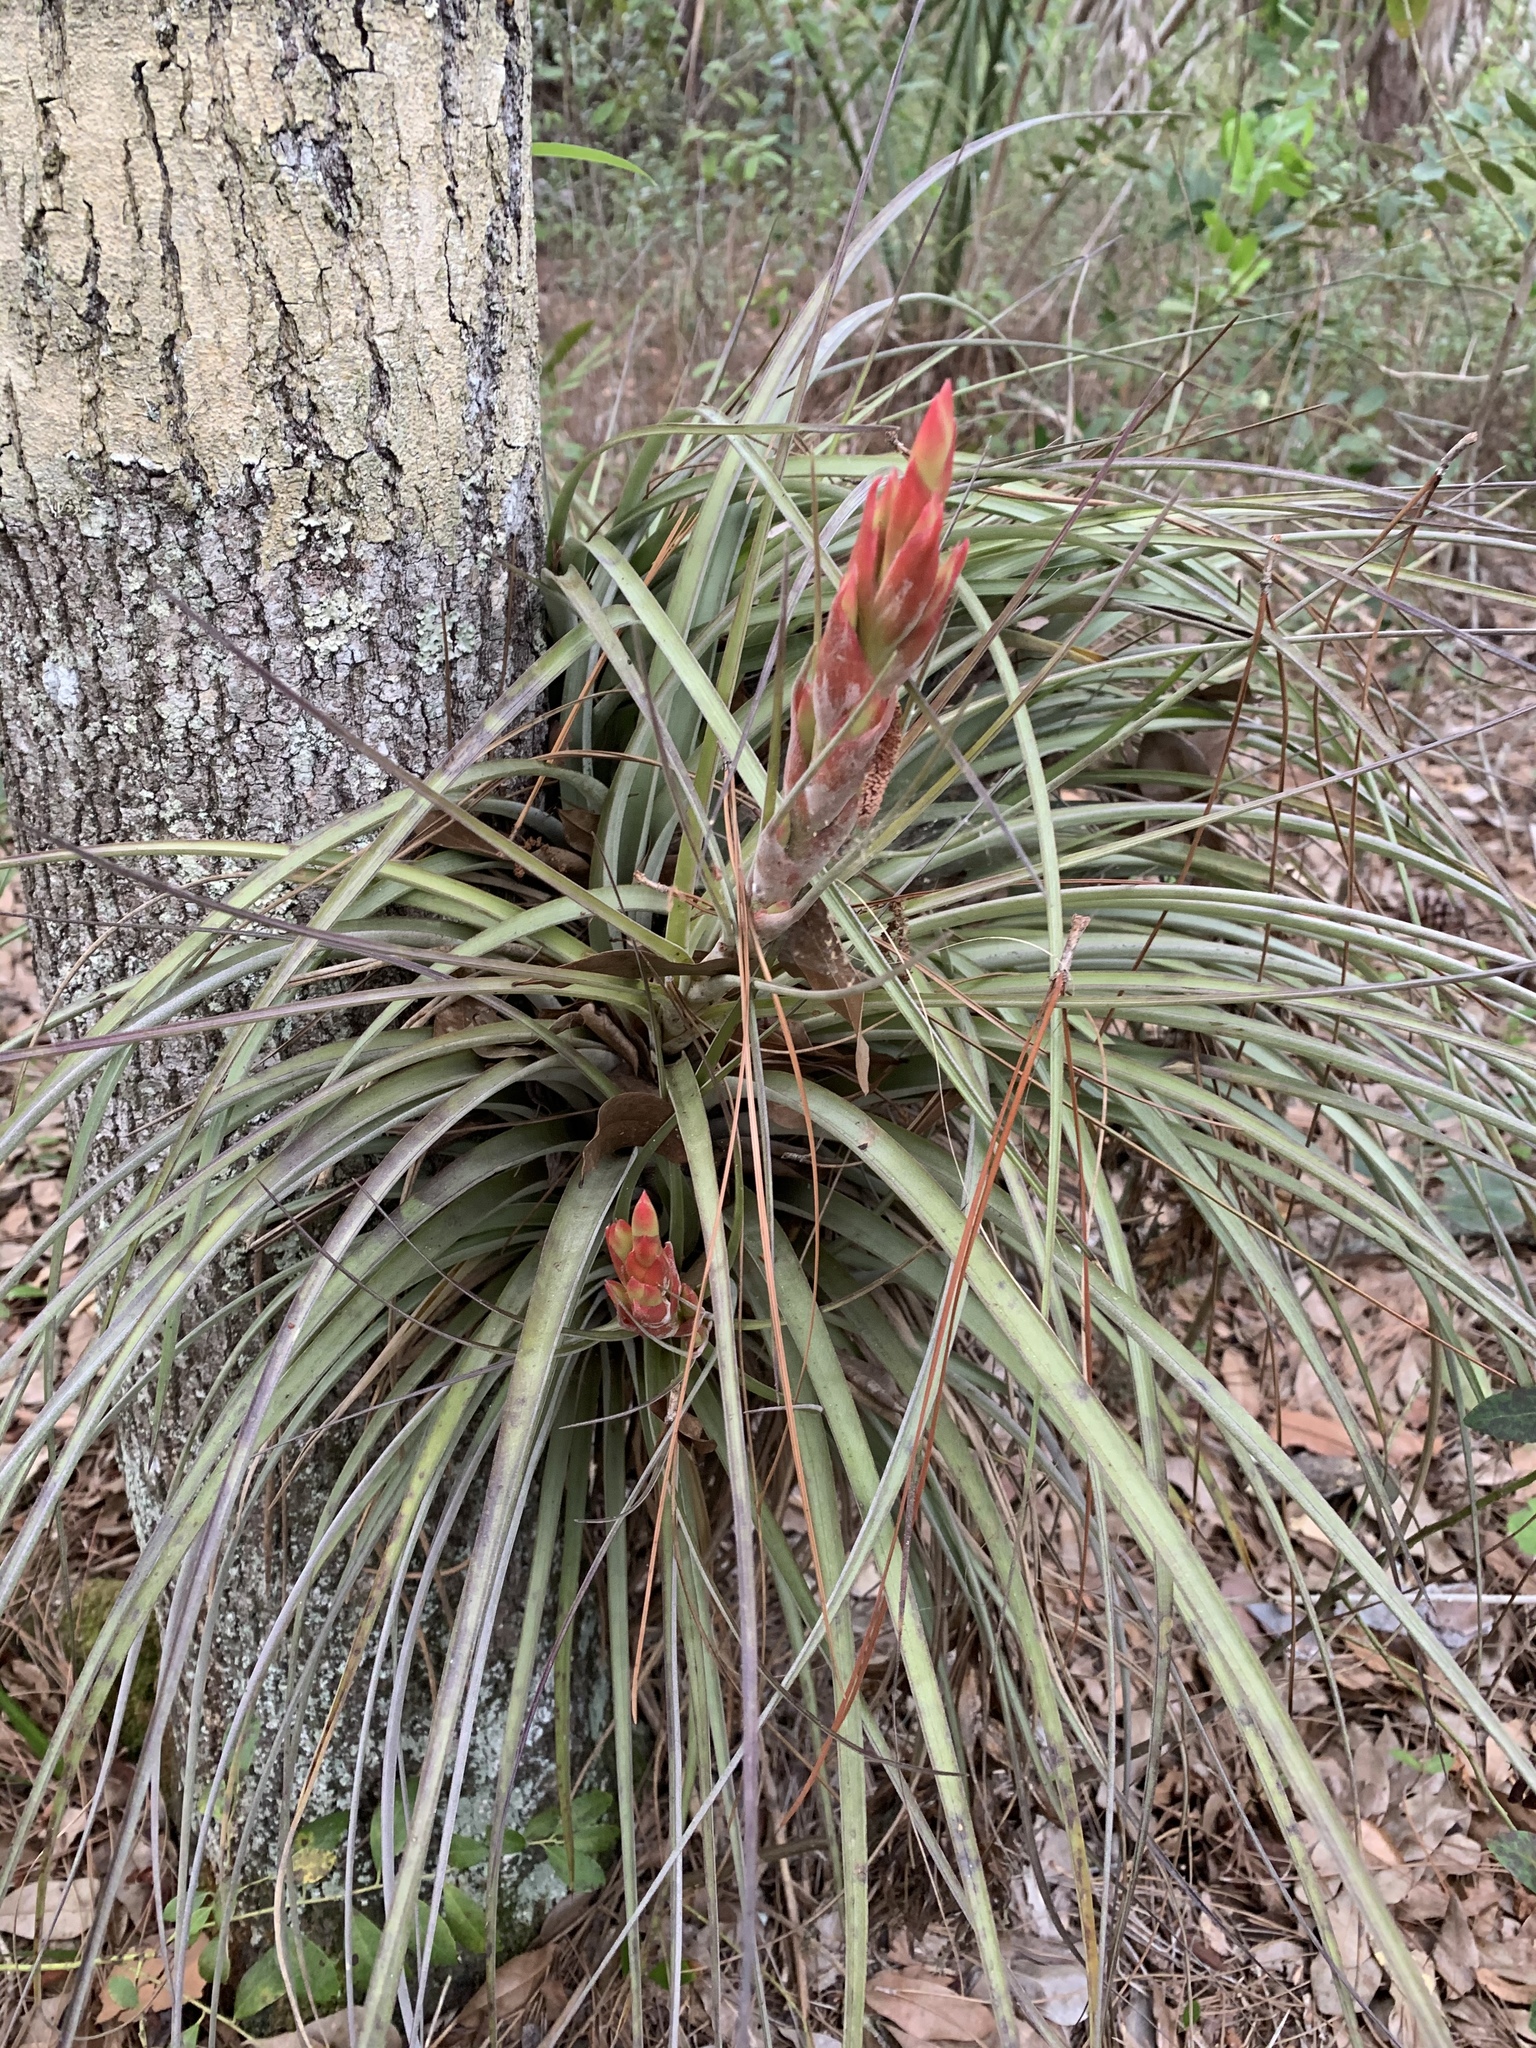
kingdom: Plantae
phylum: Tracheophyta
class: Liliopsida
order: Poales
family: Bromeliaceae
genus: Tillandsia
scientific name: Tillandsia fasciculata
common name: Giant airplant
